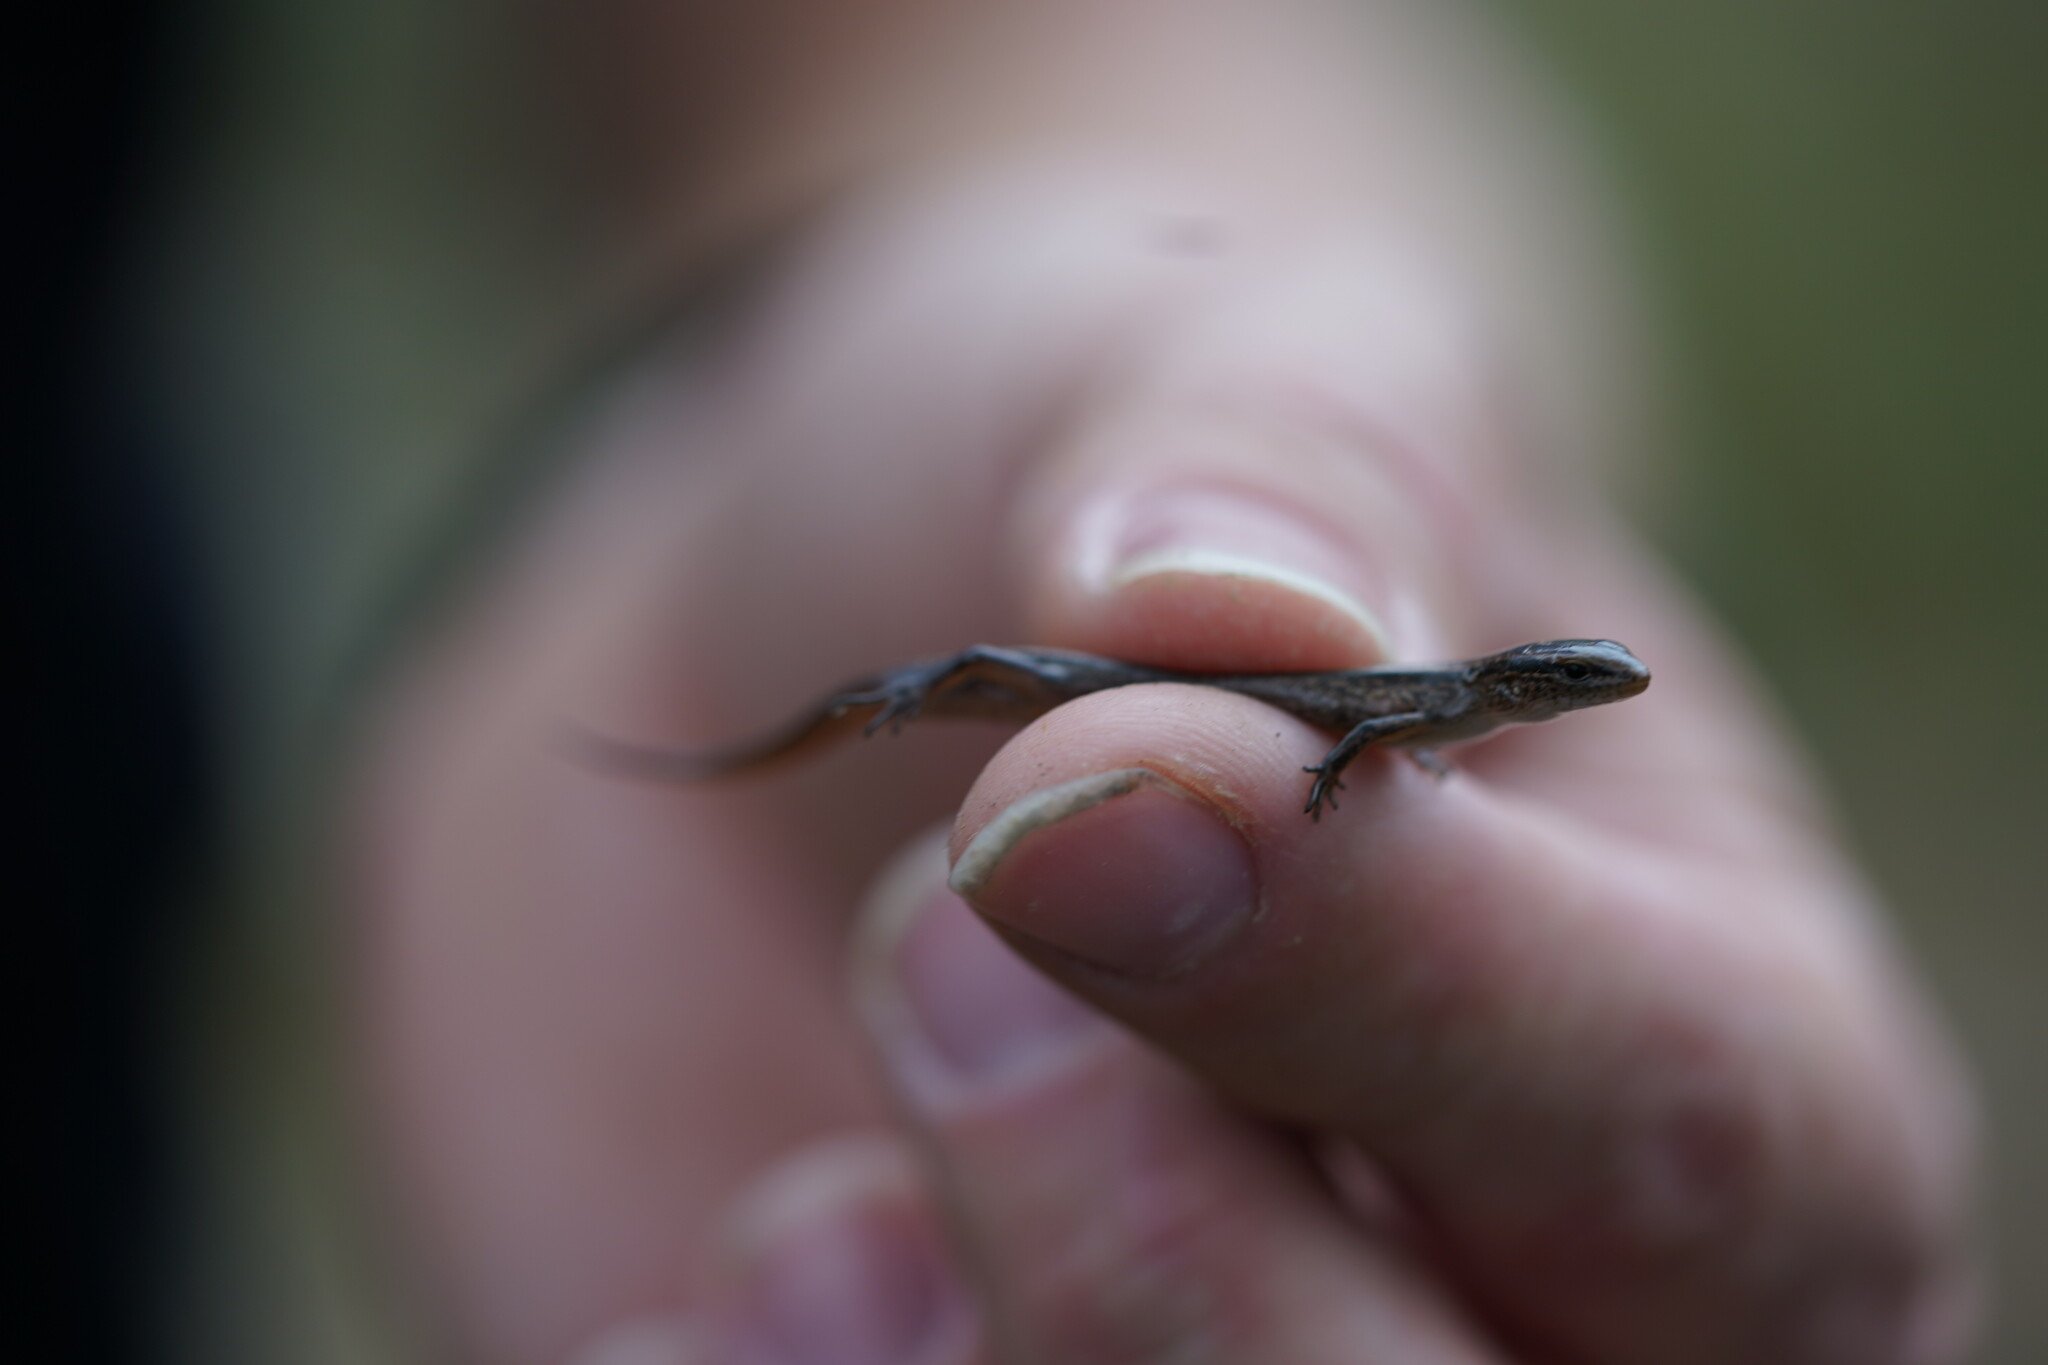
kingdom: Animalia
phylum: Chordata
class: Squamata
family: Scincidae
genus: Scincella
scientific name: Scincella lateralis
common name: Ground skink
